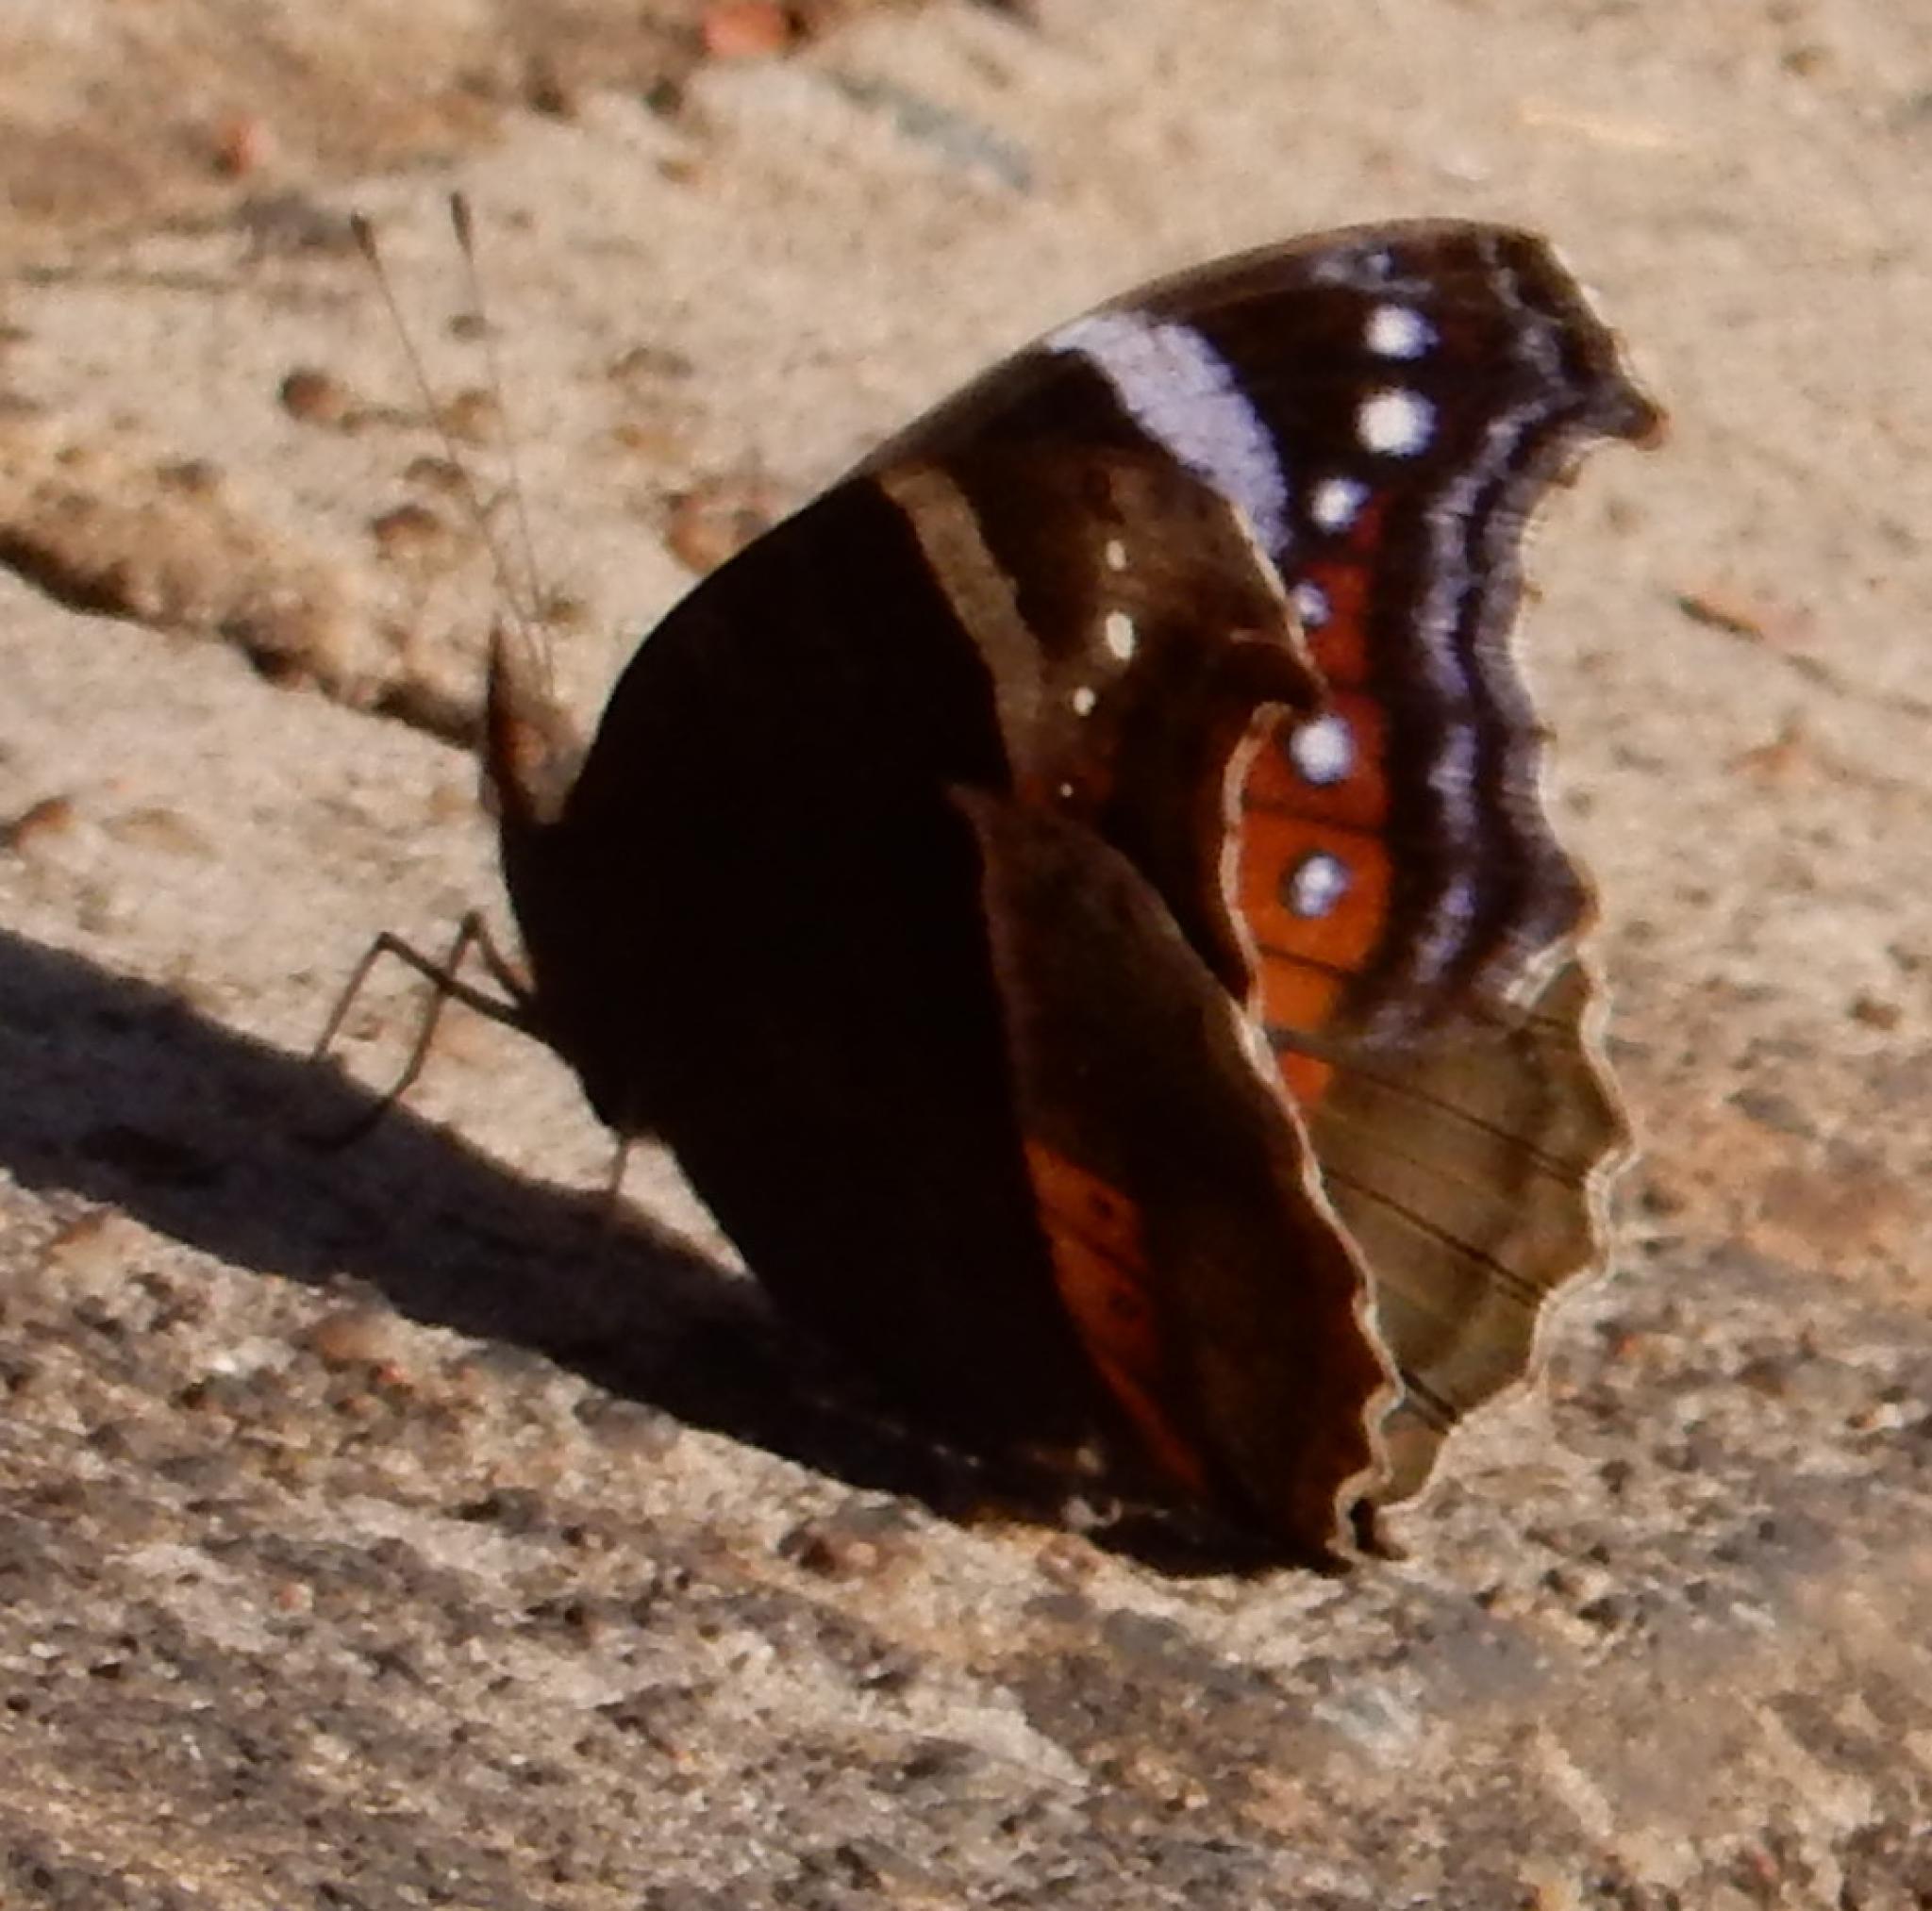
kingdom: Animalia
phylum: Arthropoda
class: Insecta
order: Lepidoptera
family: Nymphalidae
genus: Junonia
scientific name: Junonia archesia
